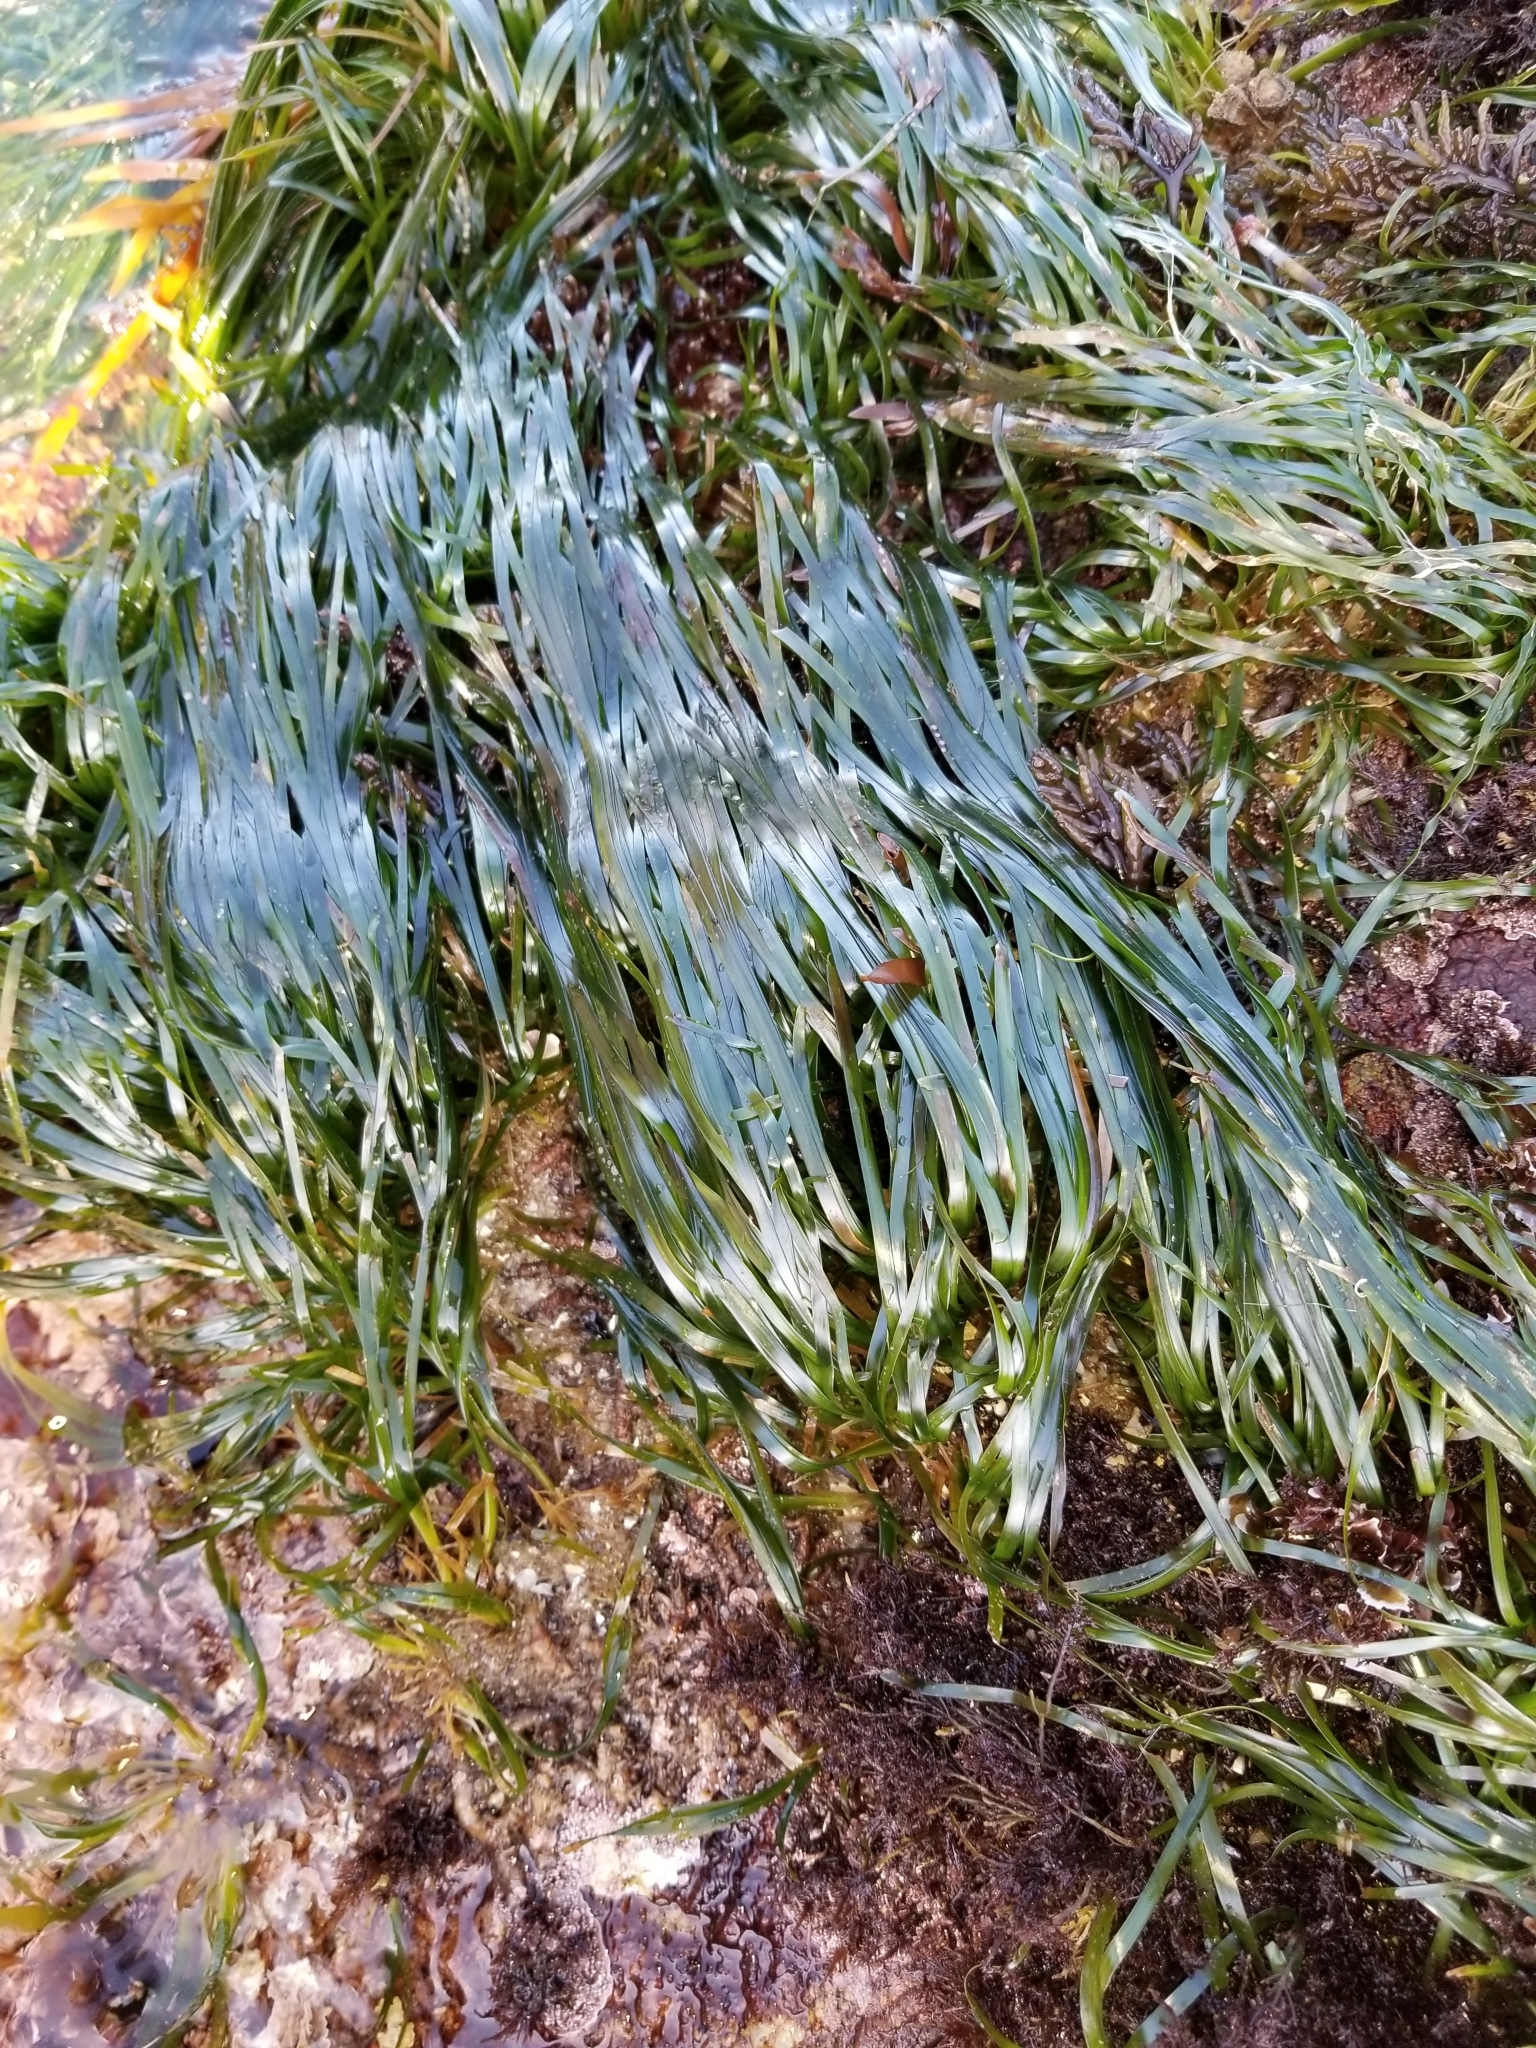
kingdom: Plantae
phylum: Tracheophyta
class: Liliopsida
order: Alismatales
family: Zosteraceae
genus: Phyllospadix
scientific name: Phyllospadix scouleri
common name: Species code: ps
